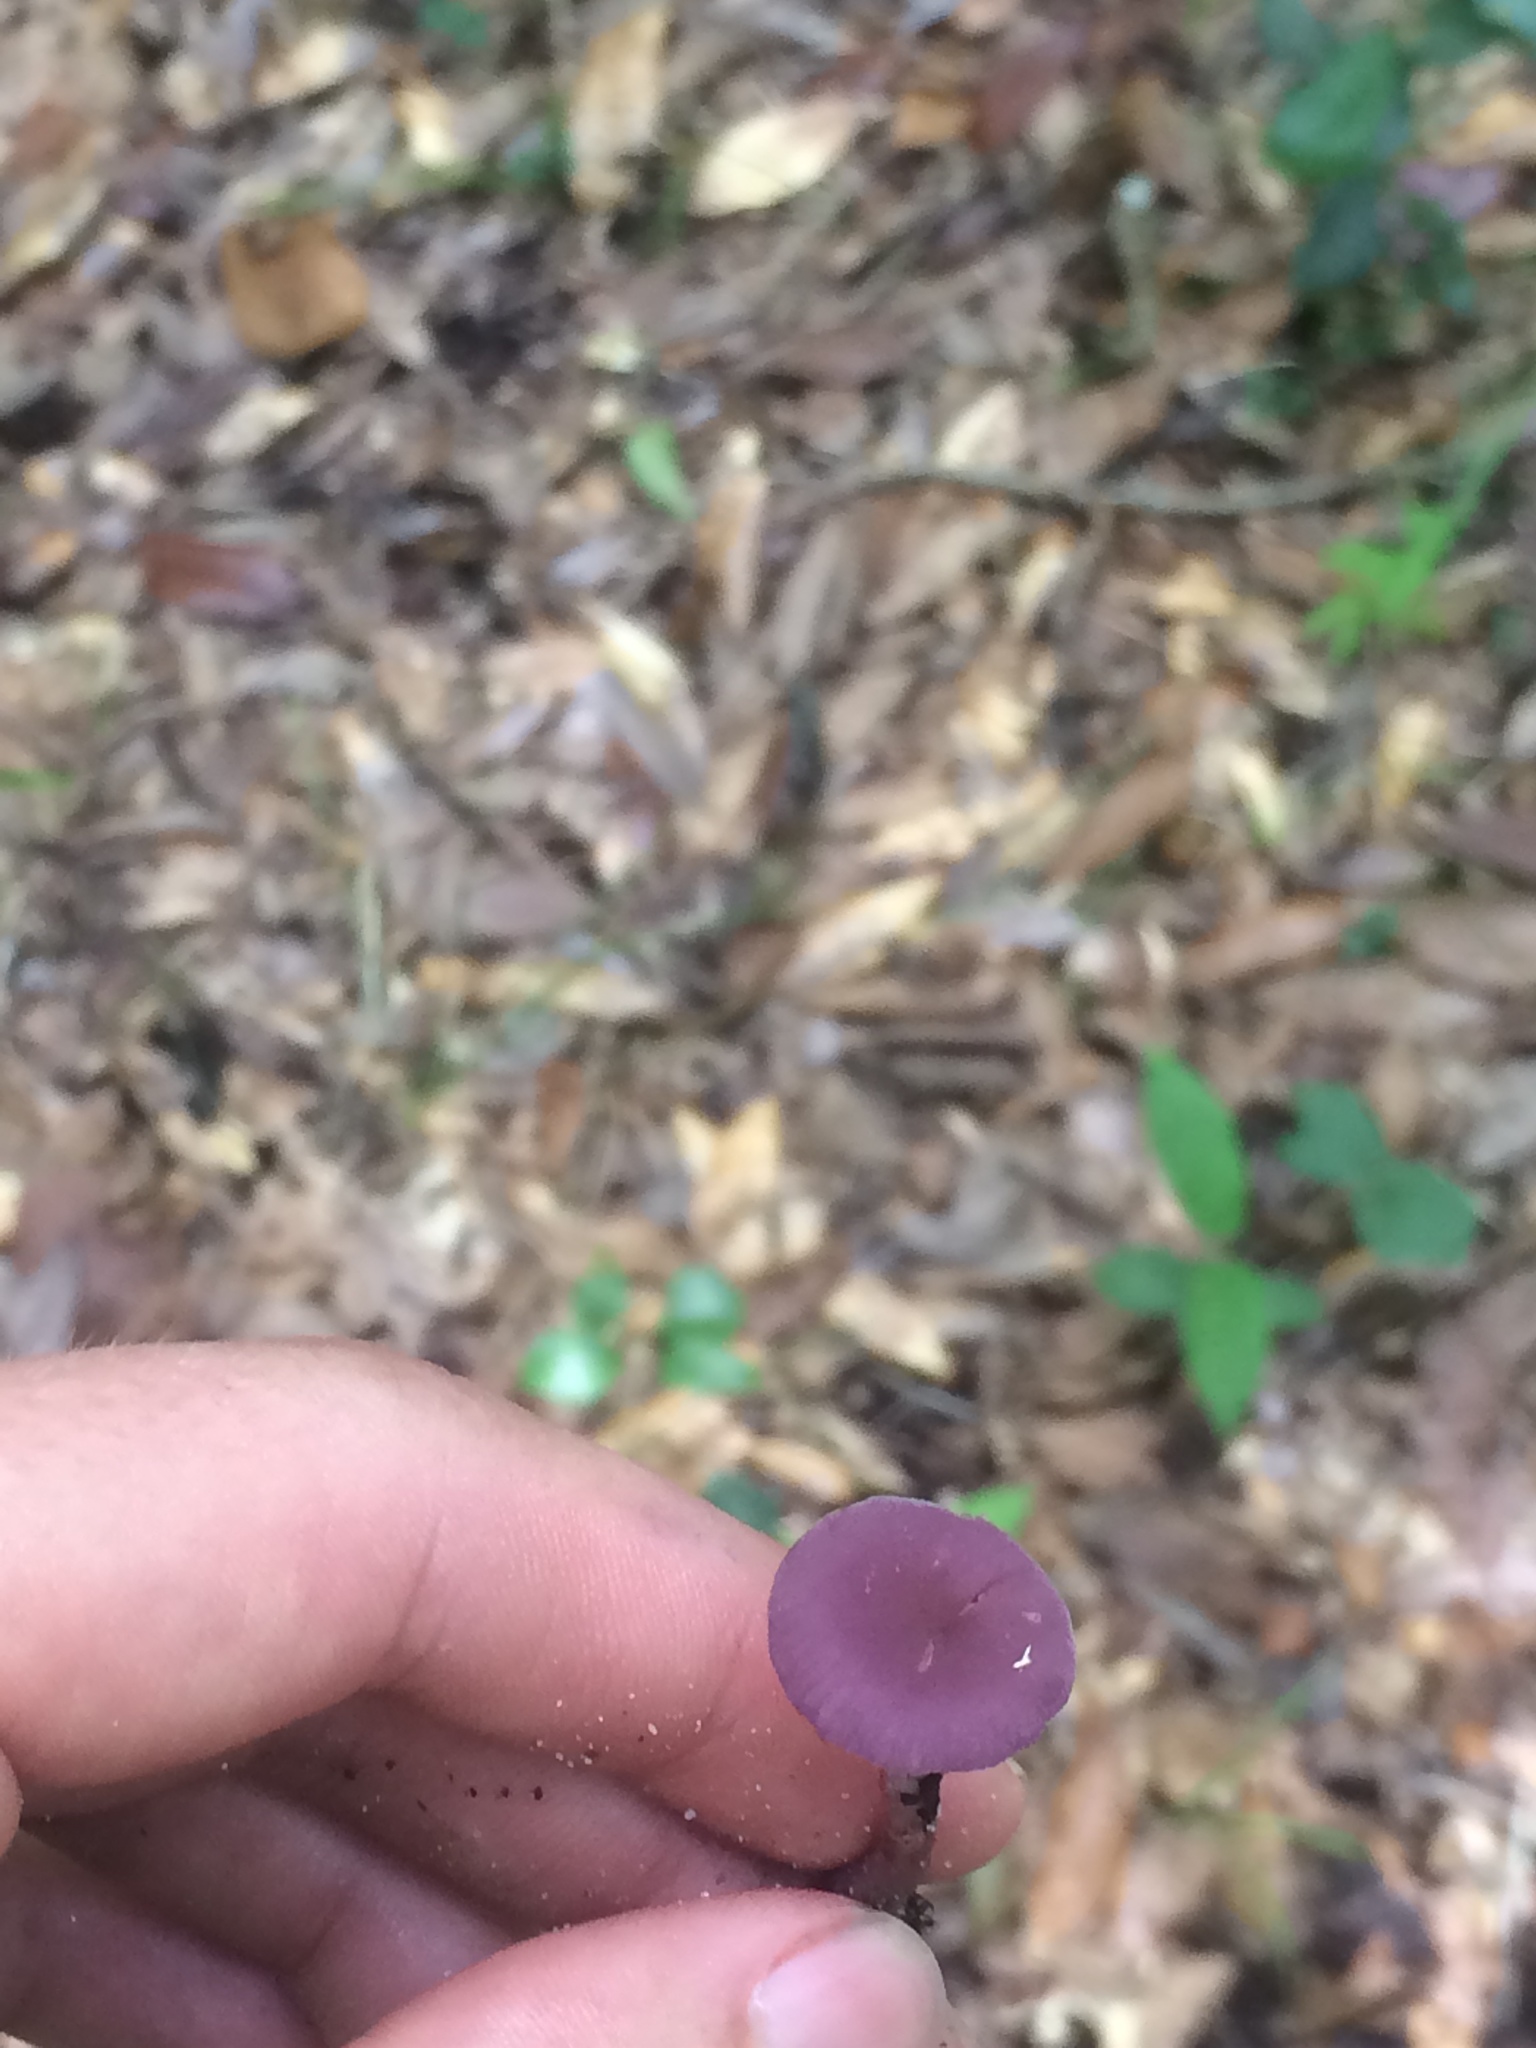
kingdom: Fungi
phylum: Basidiomycota
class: Agaricomycetes
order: Agaricales
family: Hydnangiaceae
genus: Laccaria
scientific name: Laccaria amethystina
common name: Amethyst deceiver
